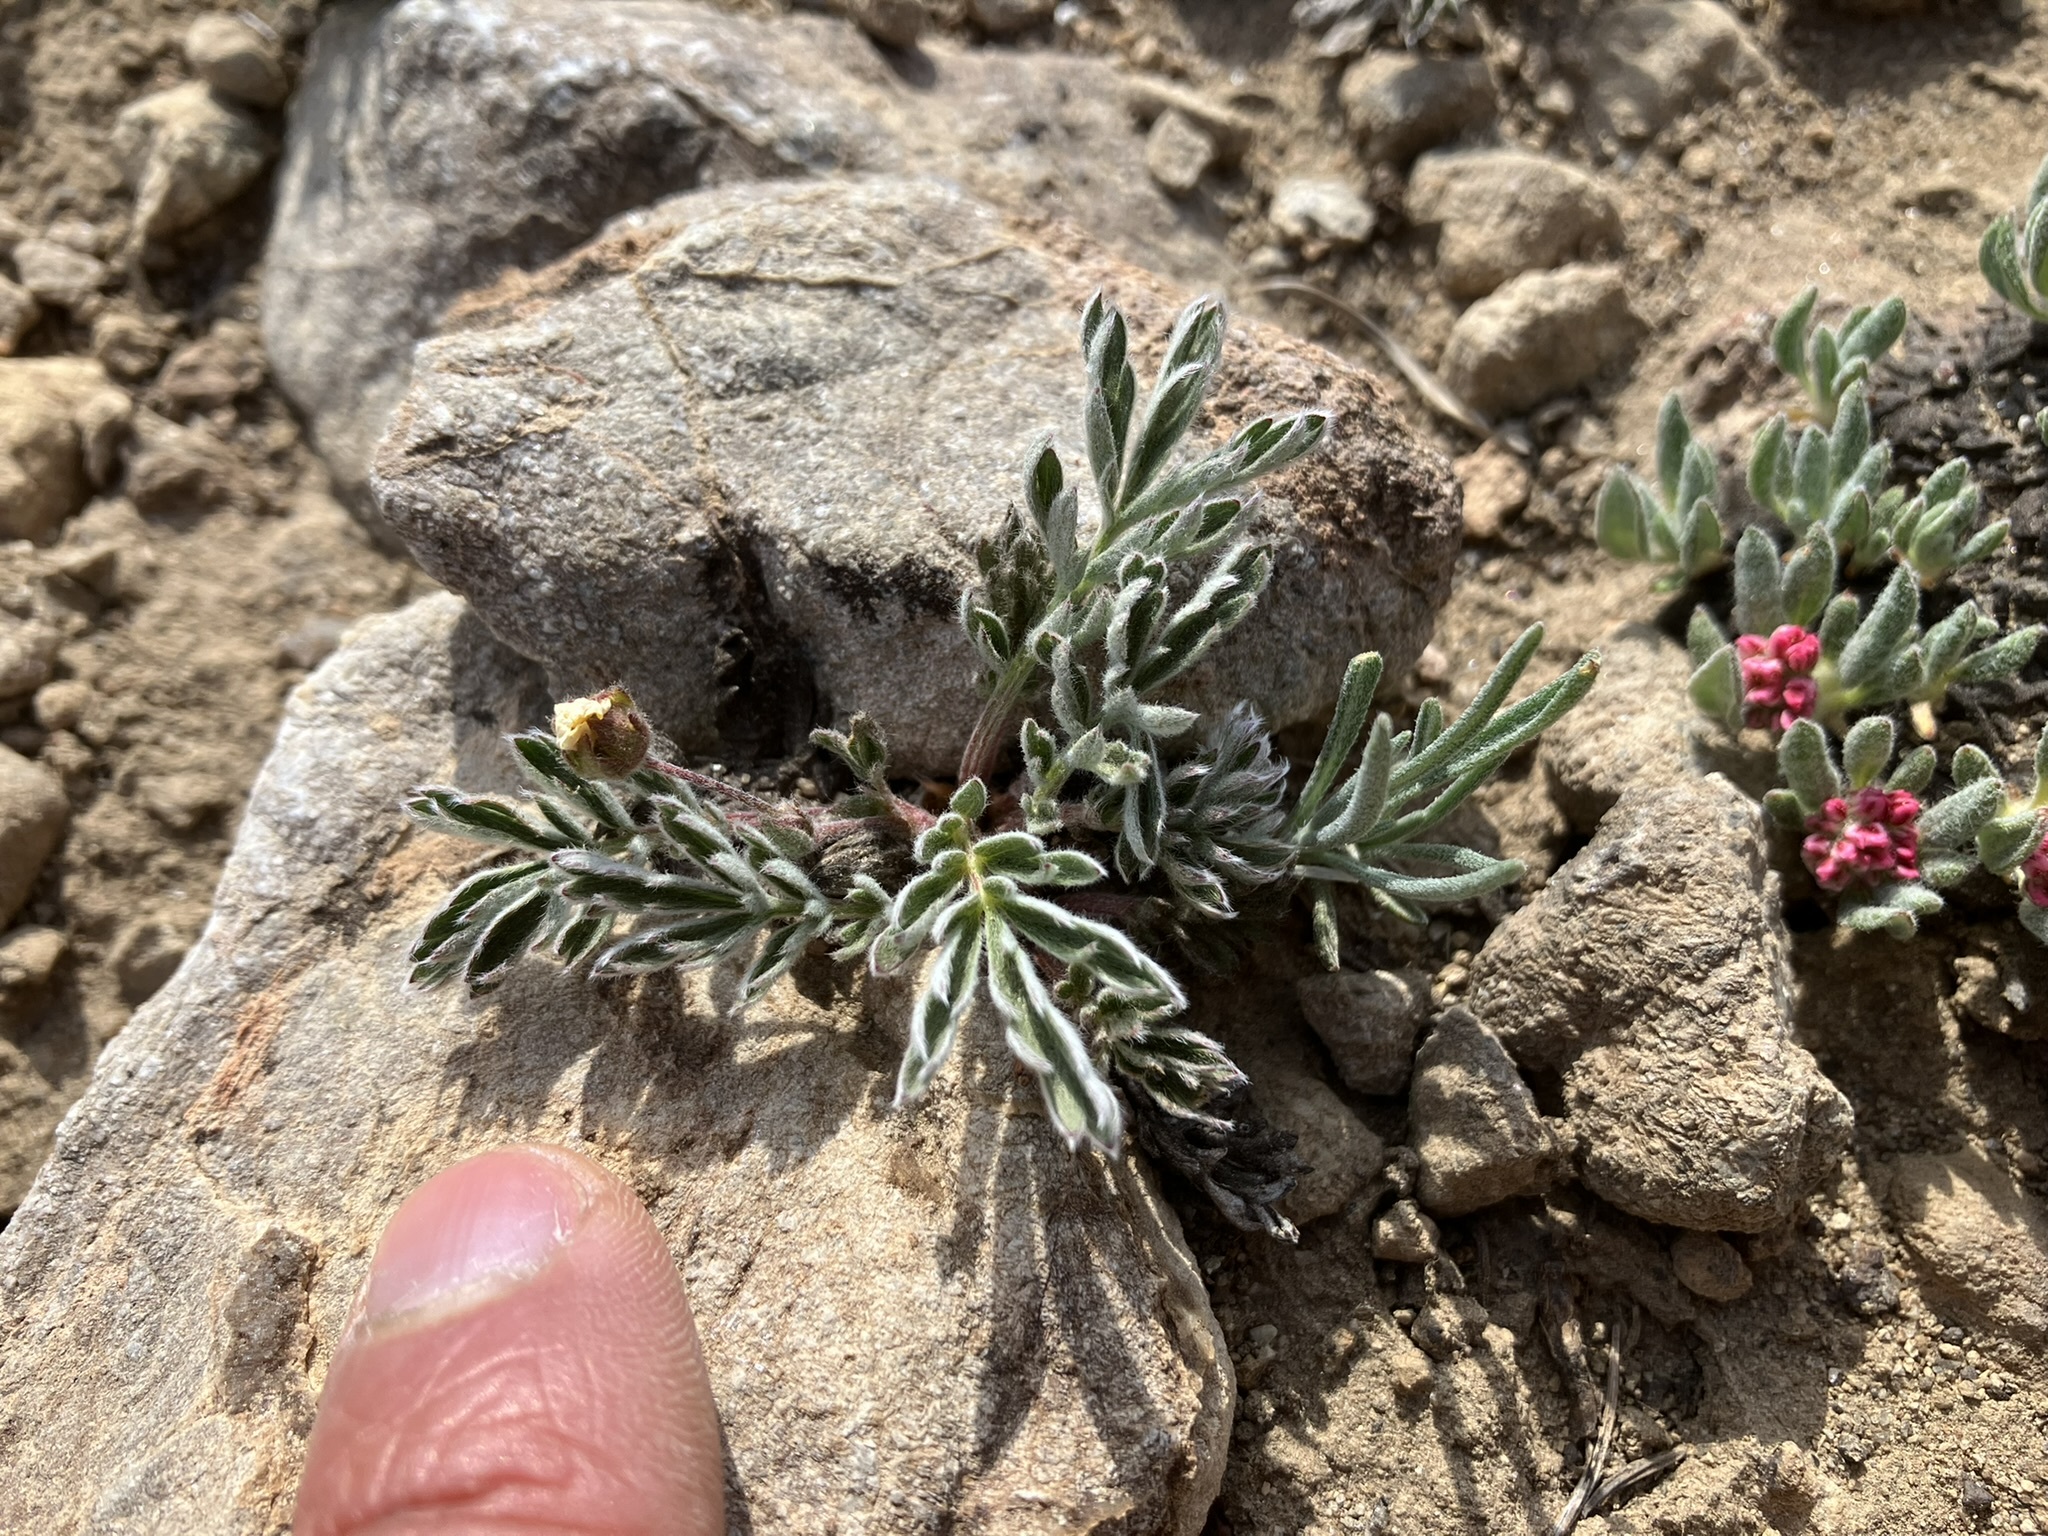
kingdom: Plantae
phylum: Tracheophyta
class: Magnoliopsida
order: Rosales
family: Rosaceae
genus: Potentilla
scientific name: Potentilla morefieldii
